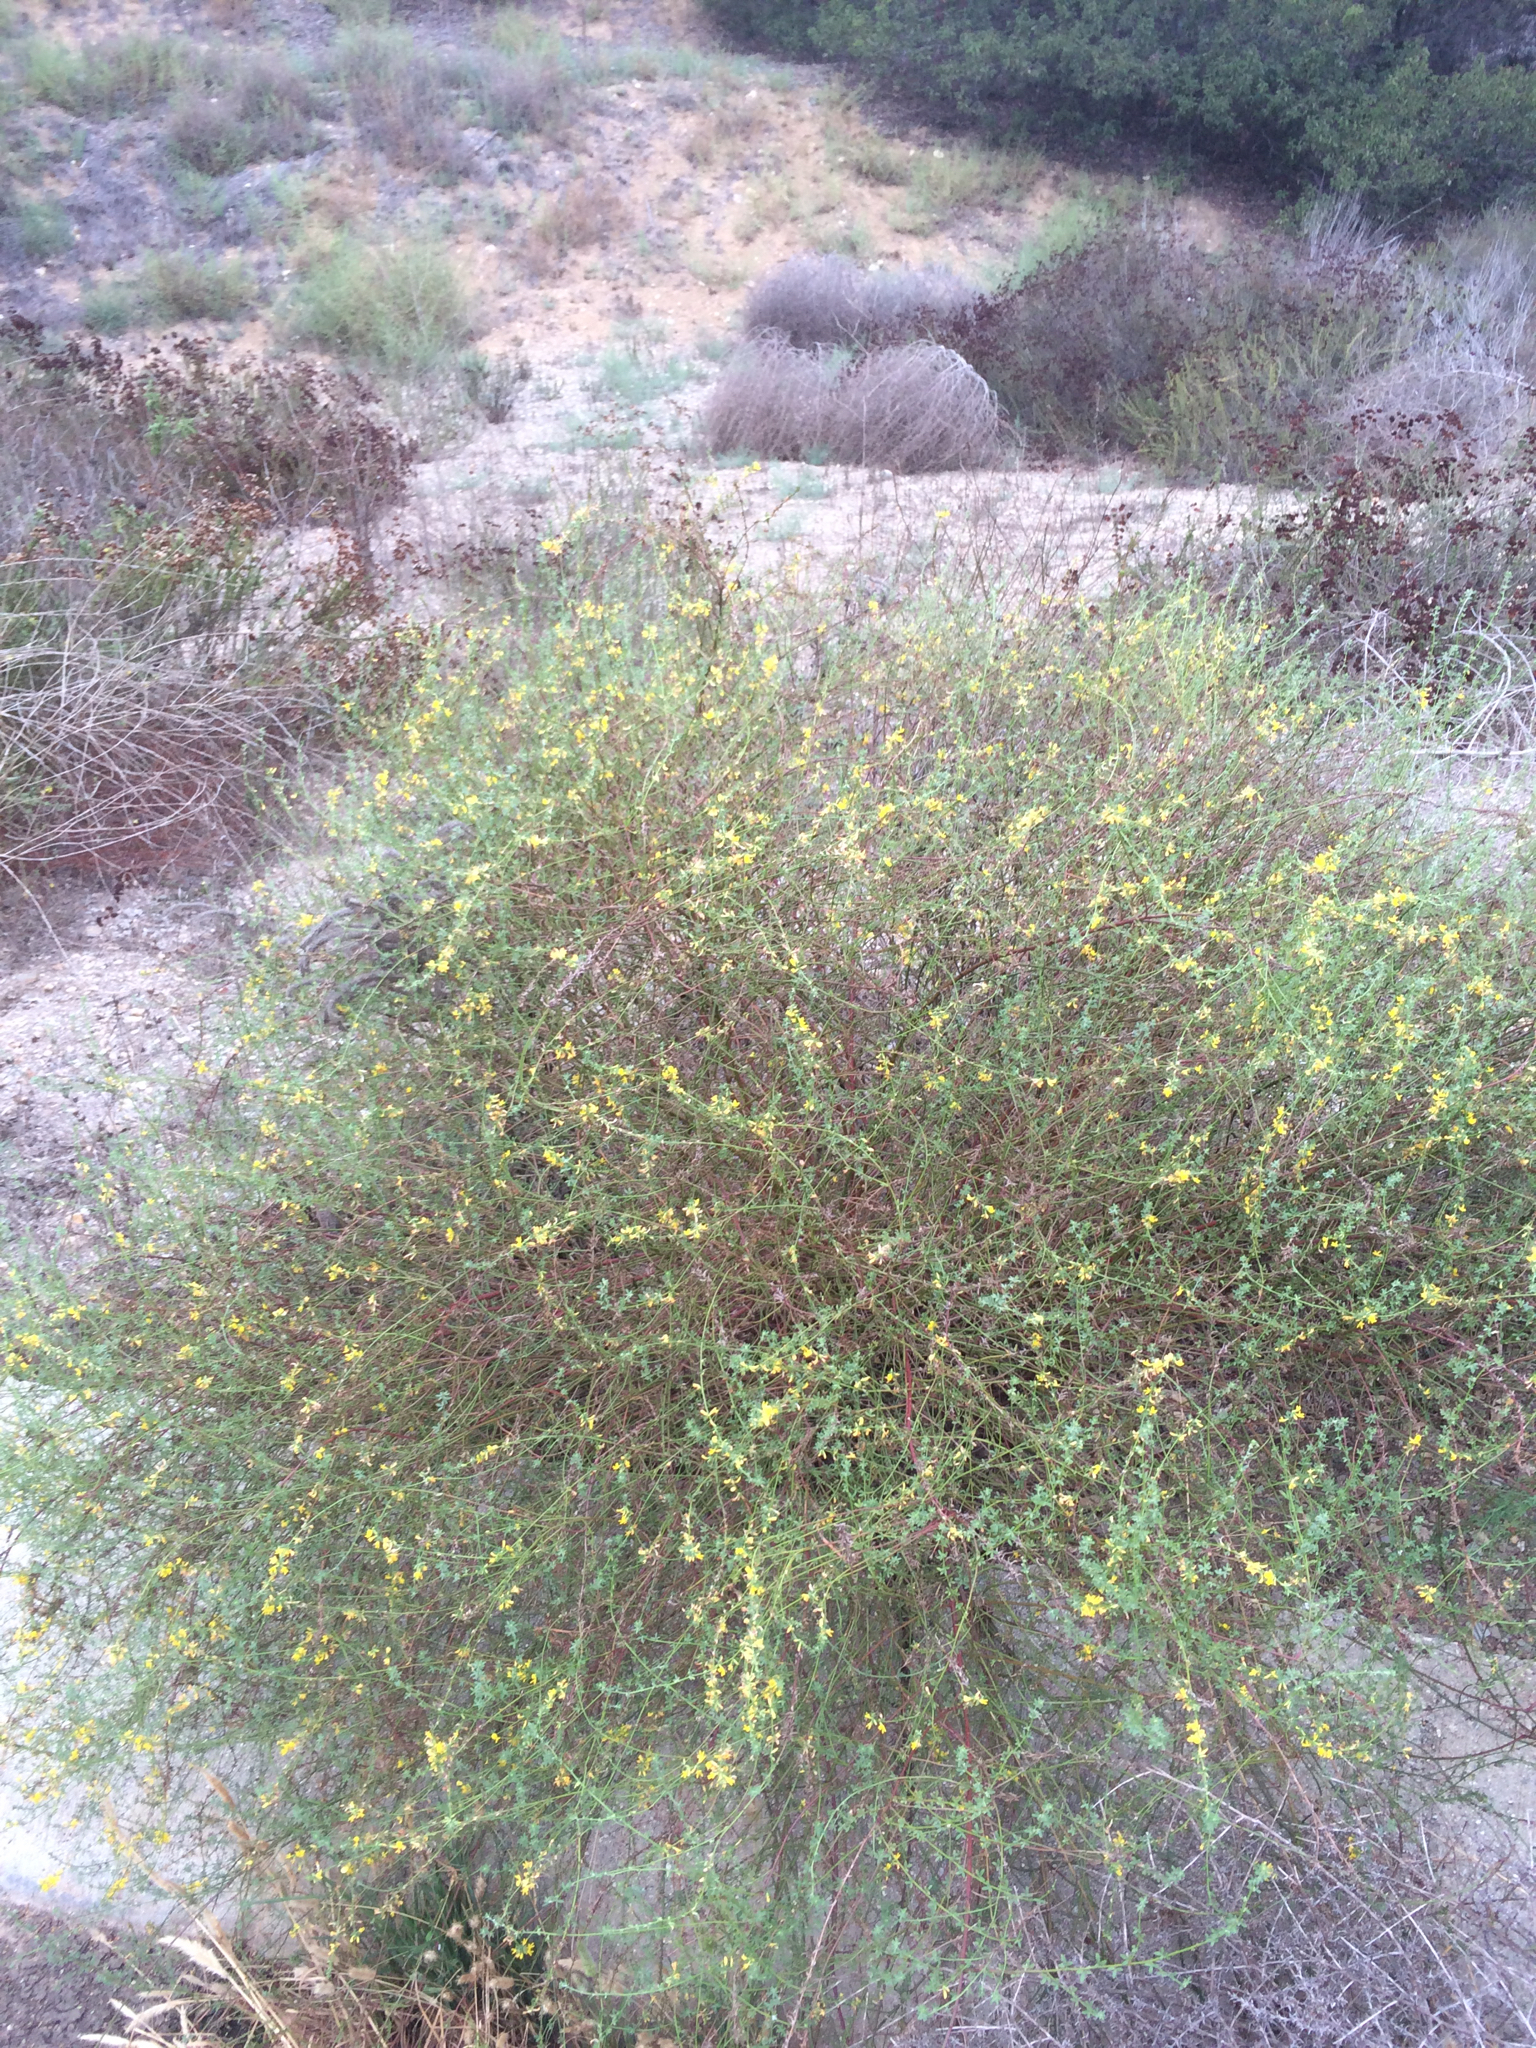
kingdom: Plantae
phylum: Tracheophyta
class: Magnoliopsida
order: Fabales
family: Fabaceae
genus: Acmispon
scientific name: Acmispon glaber
